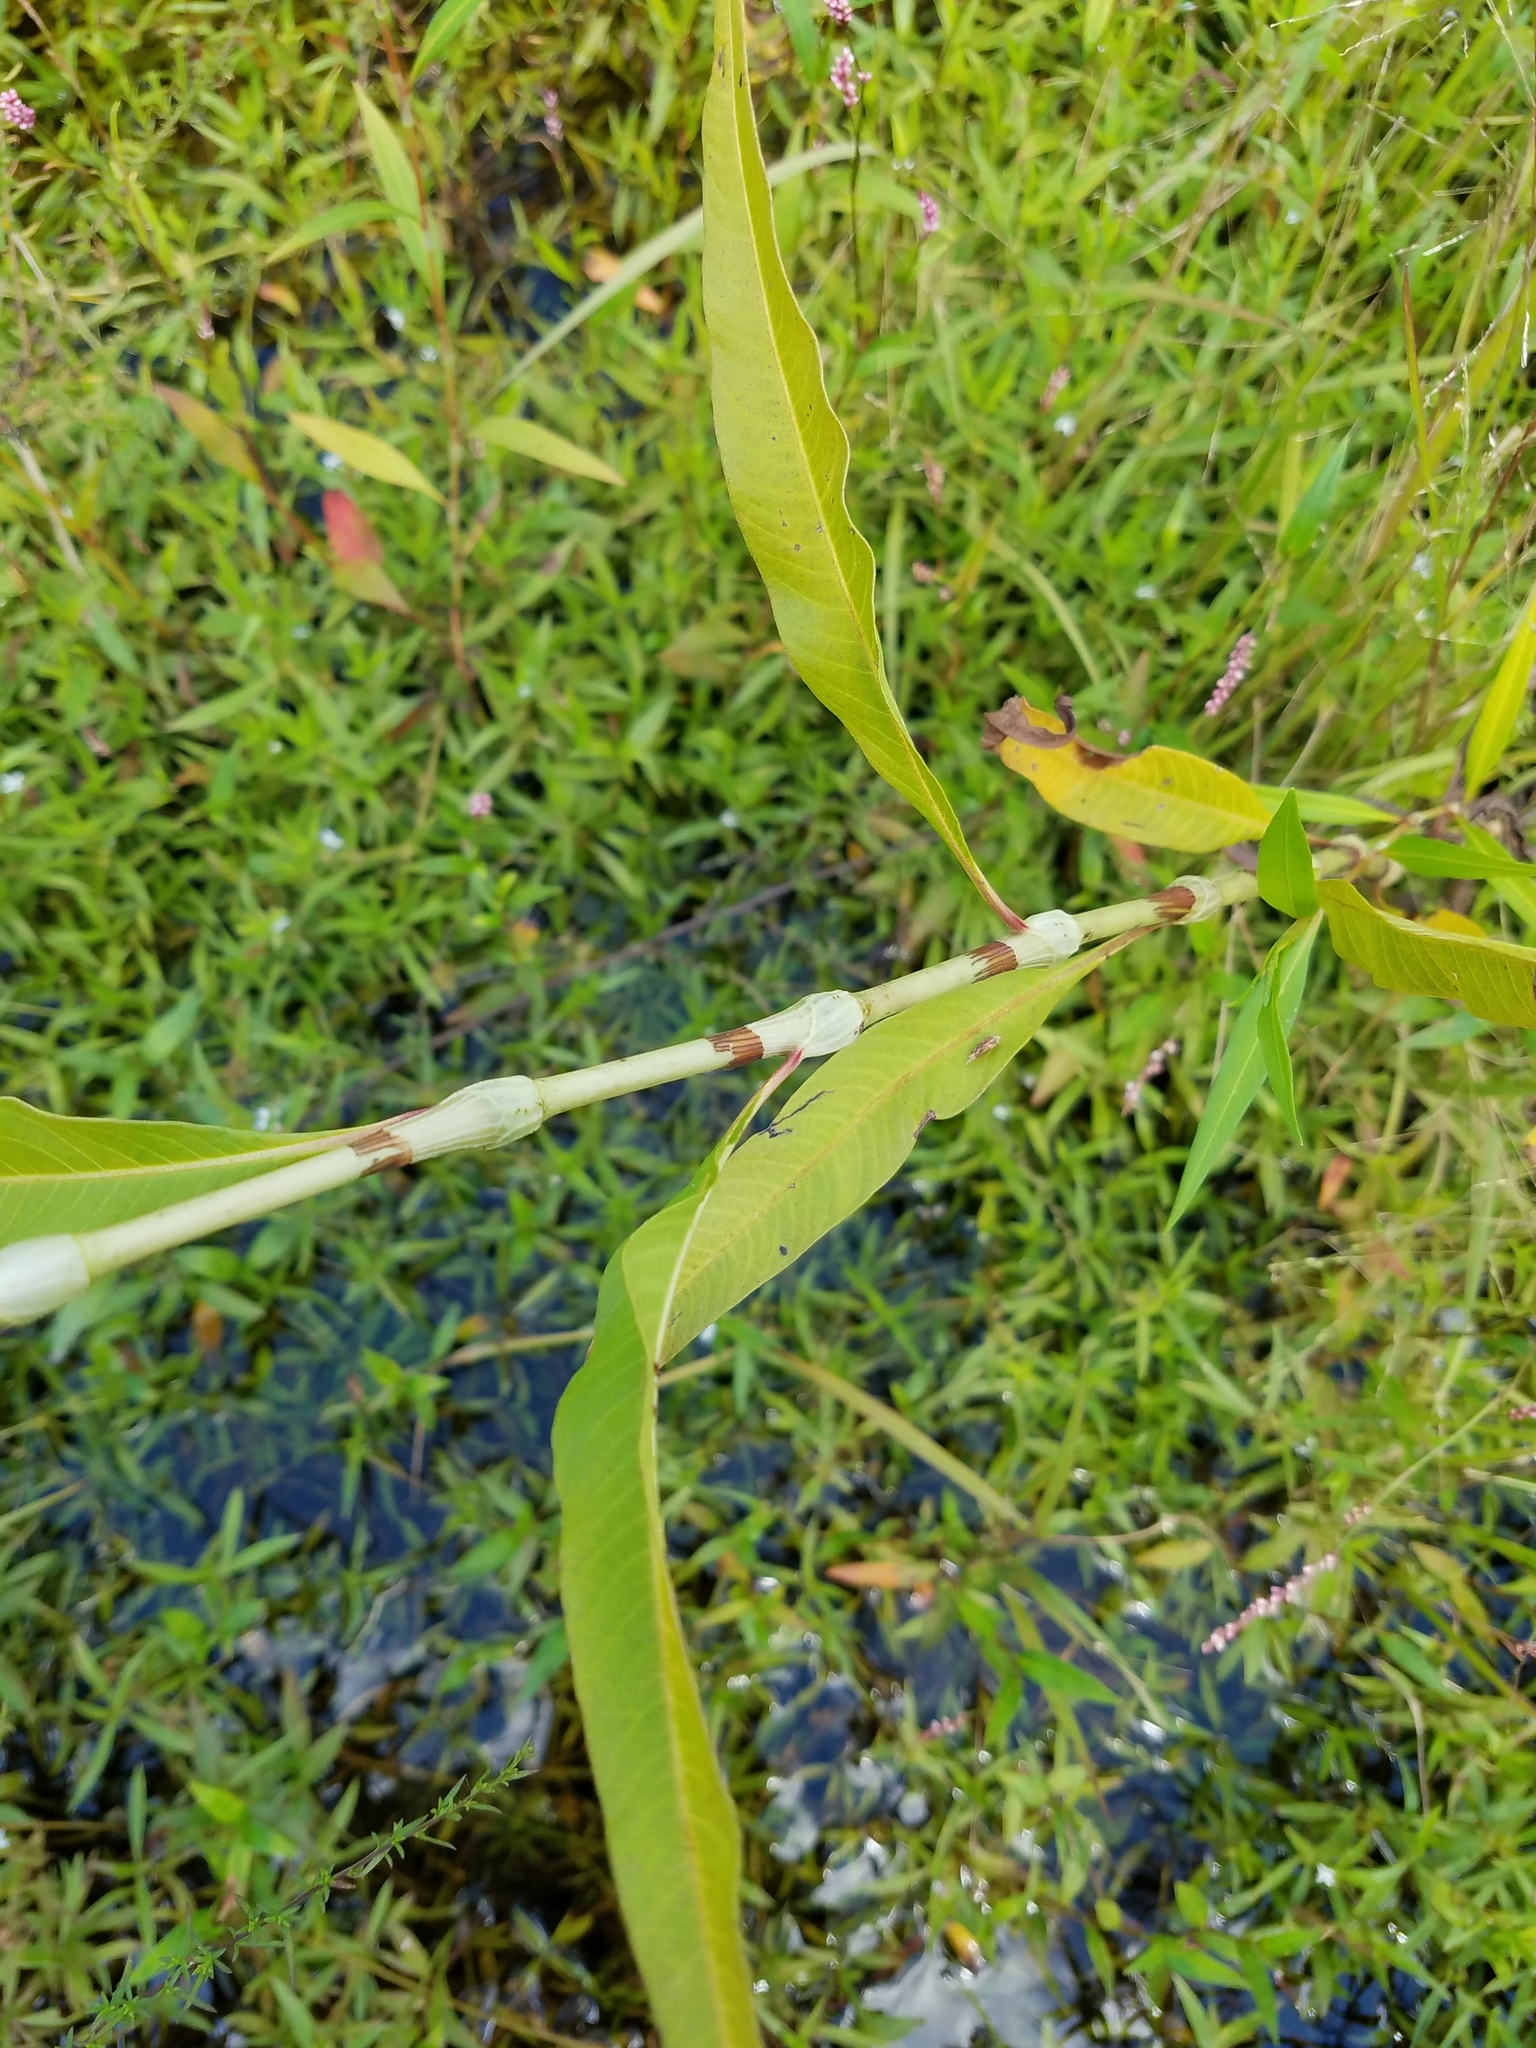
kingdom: Plantae
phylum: Tracheophyta
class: Magnoliopsida
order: Caryophyllales
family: Polygonaceae
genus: Persicaria
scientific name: Persicaria lapathifolia
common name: Curlytop knotweed
